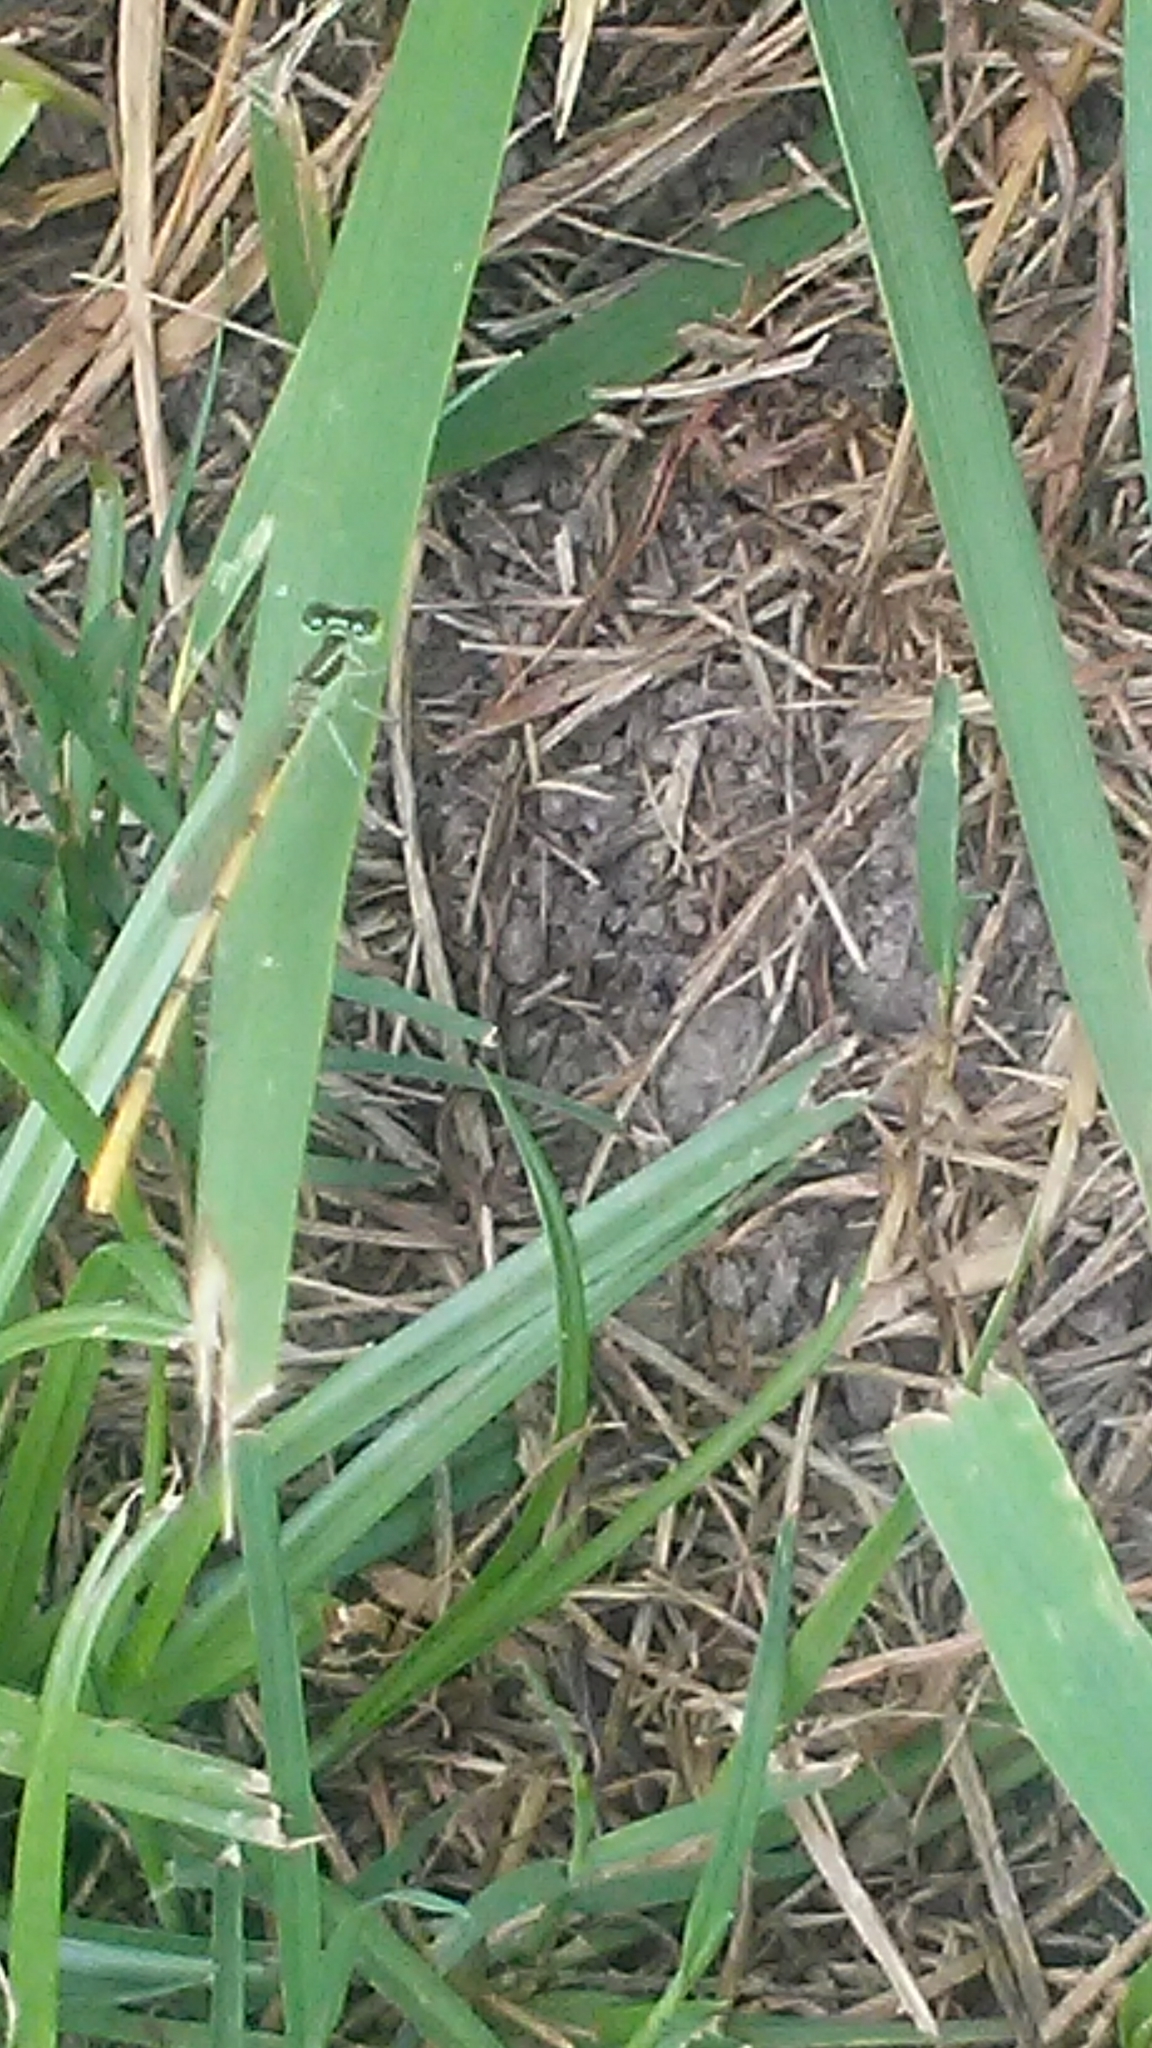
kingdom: Animalia
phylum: Arthropoda
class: Insecta
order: Odonata
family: Coenagrionidae
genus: Ischnura
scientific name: Ischnura hastata
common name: Citrine forktail
